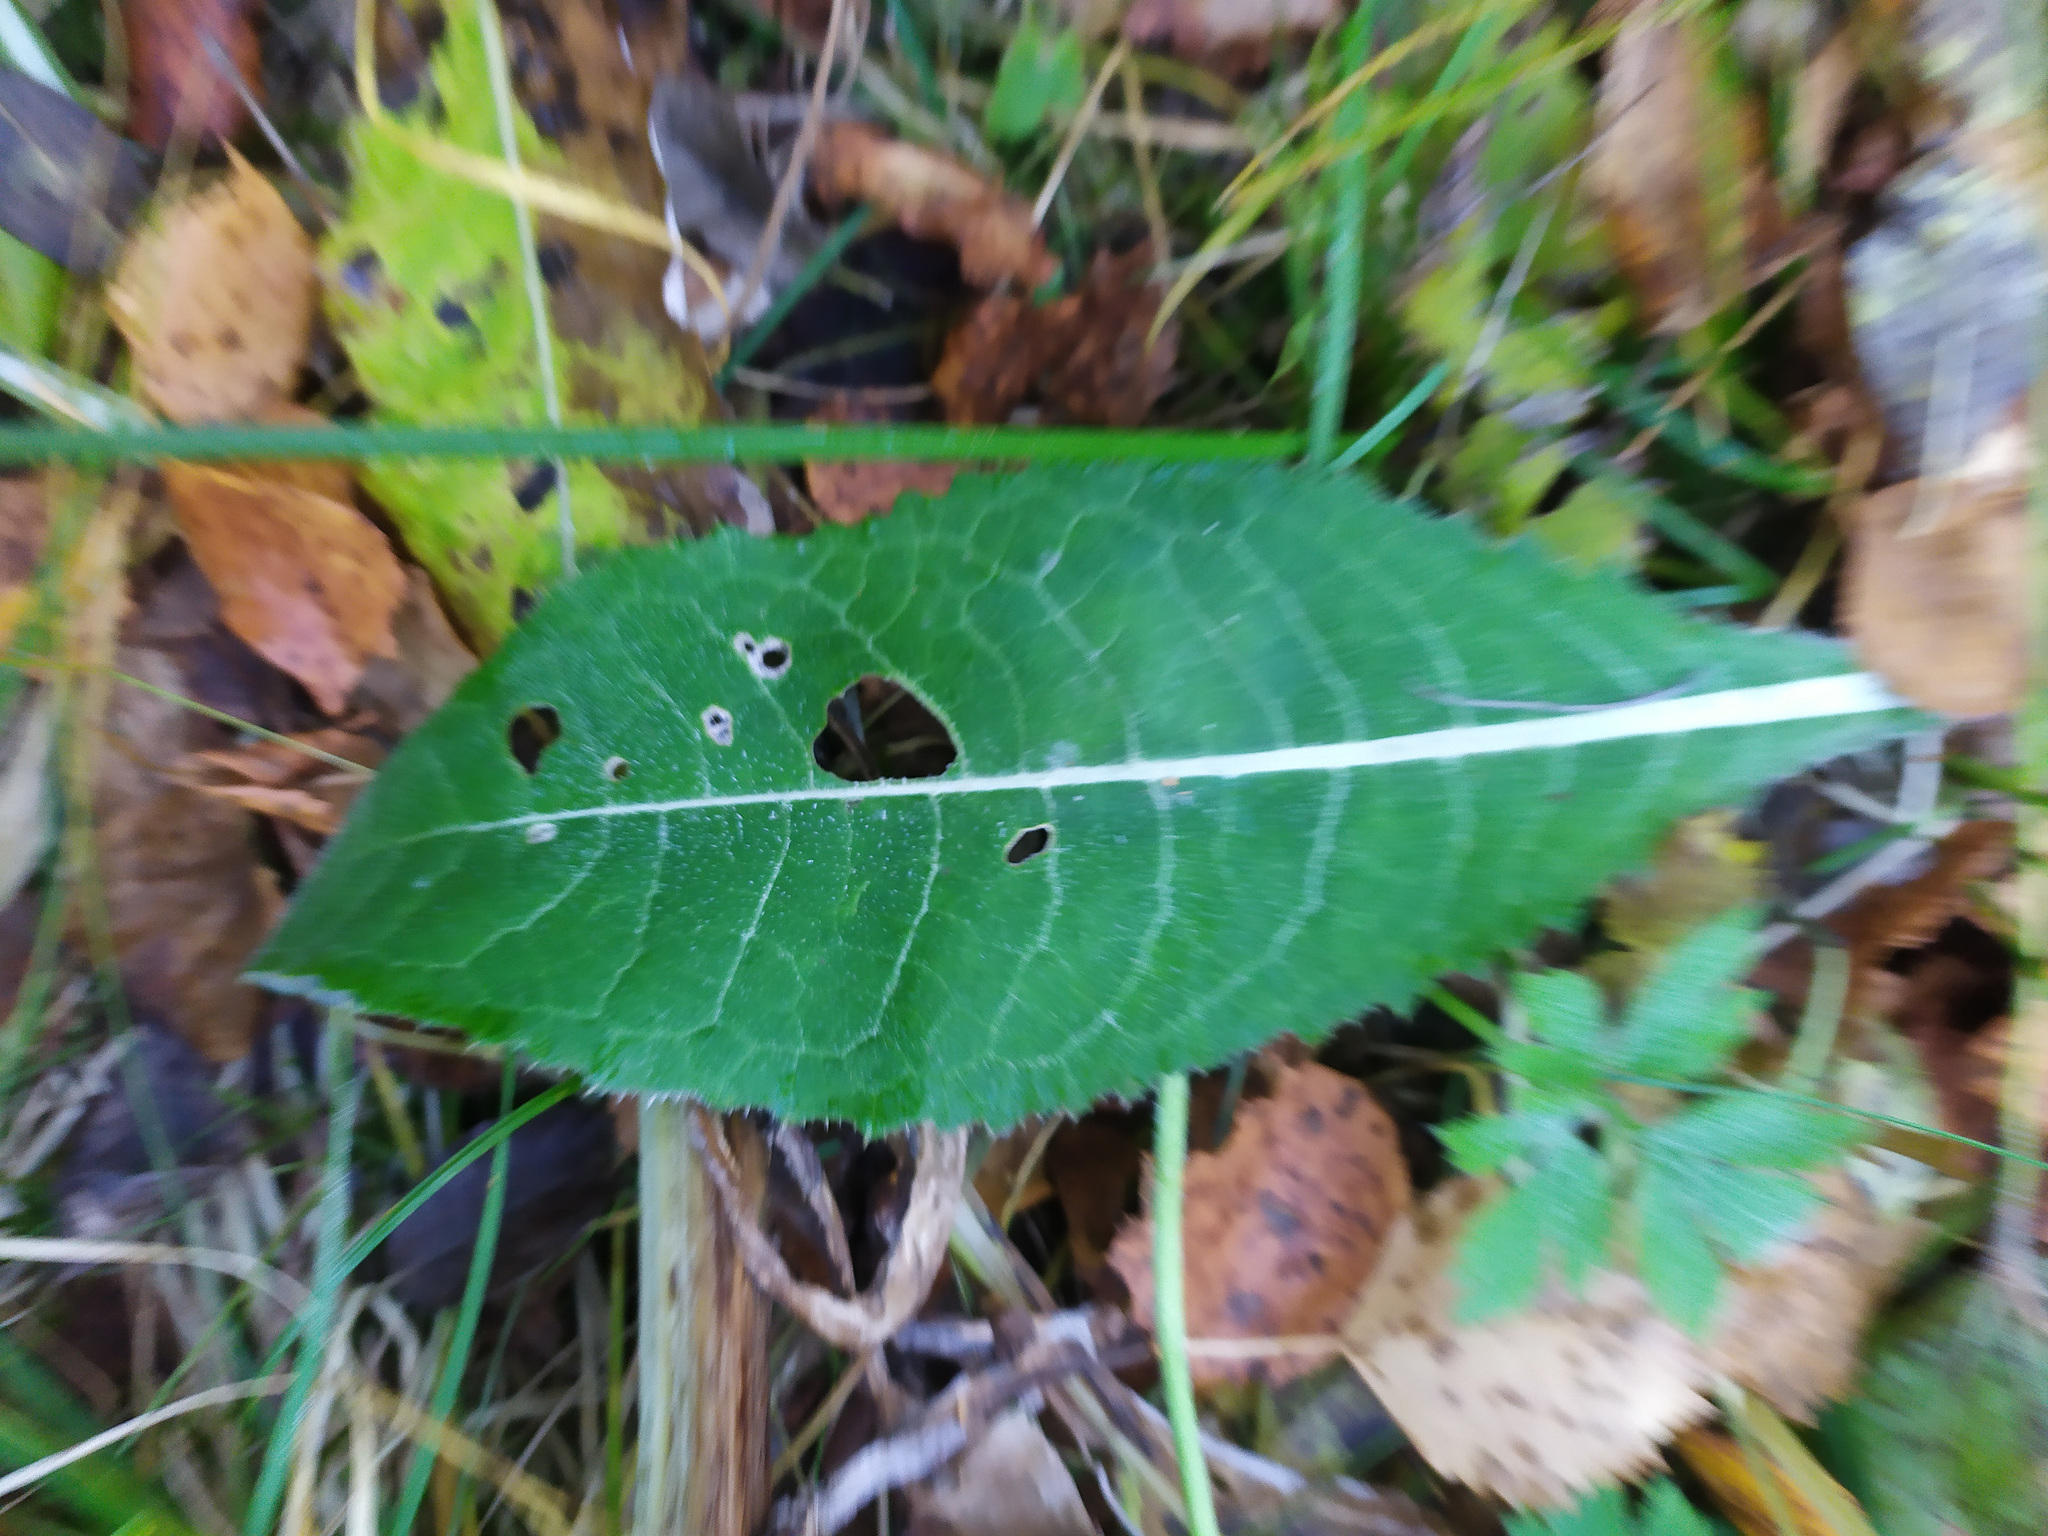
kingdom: Plantae
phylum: Tracheophyta
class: Magnoliopsida
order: Asterales
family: Asteraceae
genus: Cirsium
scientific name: Cirsium heterophyllum
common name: Melancholy thistle
